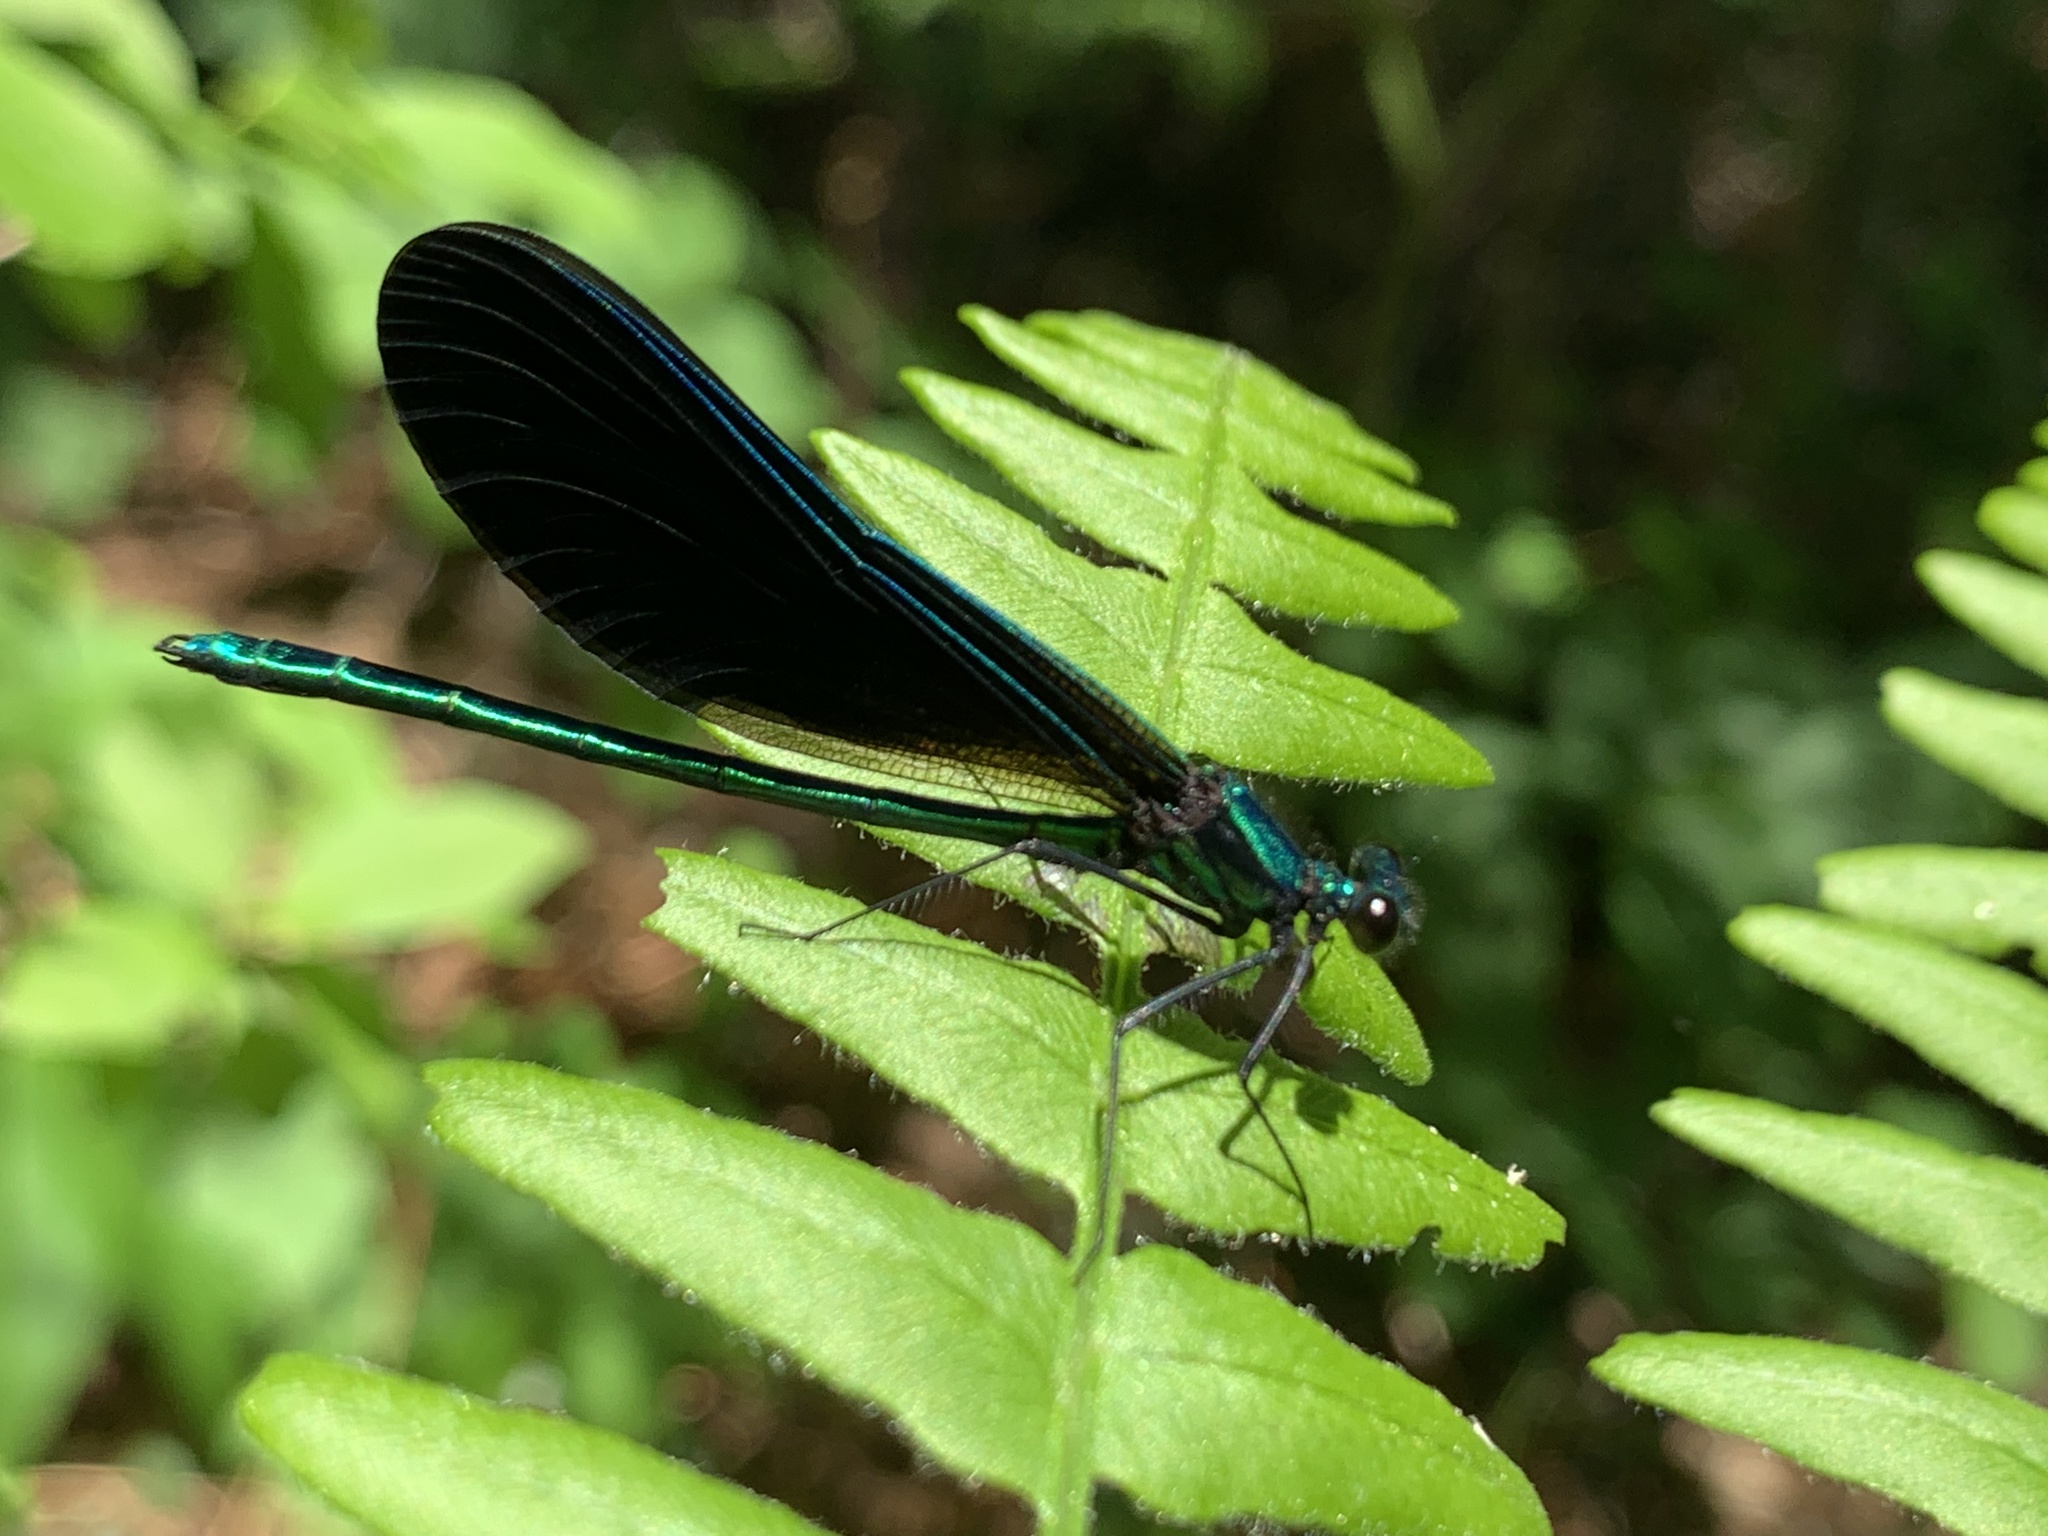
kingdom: Animalia
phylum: Arthropoda
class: Insecta
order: Odonata
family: Calopterygidae
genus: Calopteryx
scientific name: Calopteryx maculata
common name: Ebony jewelwing
